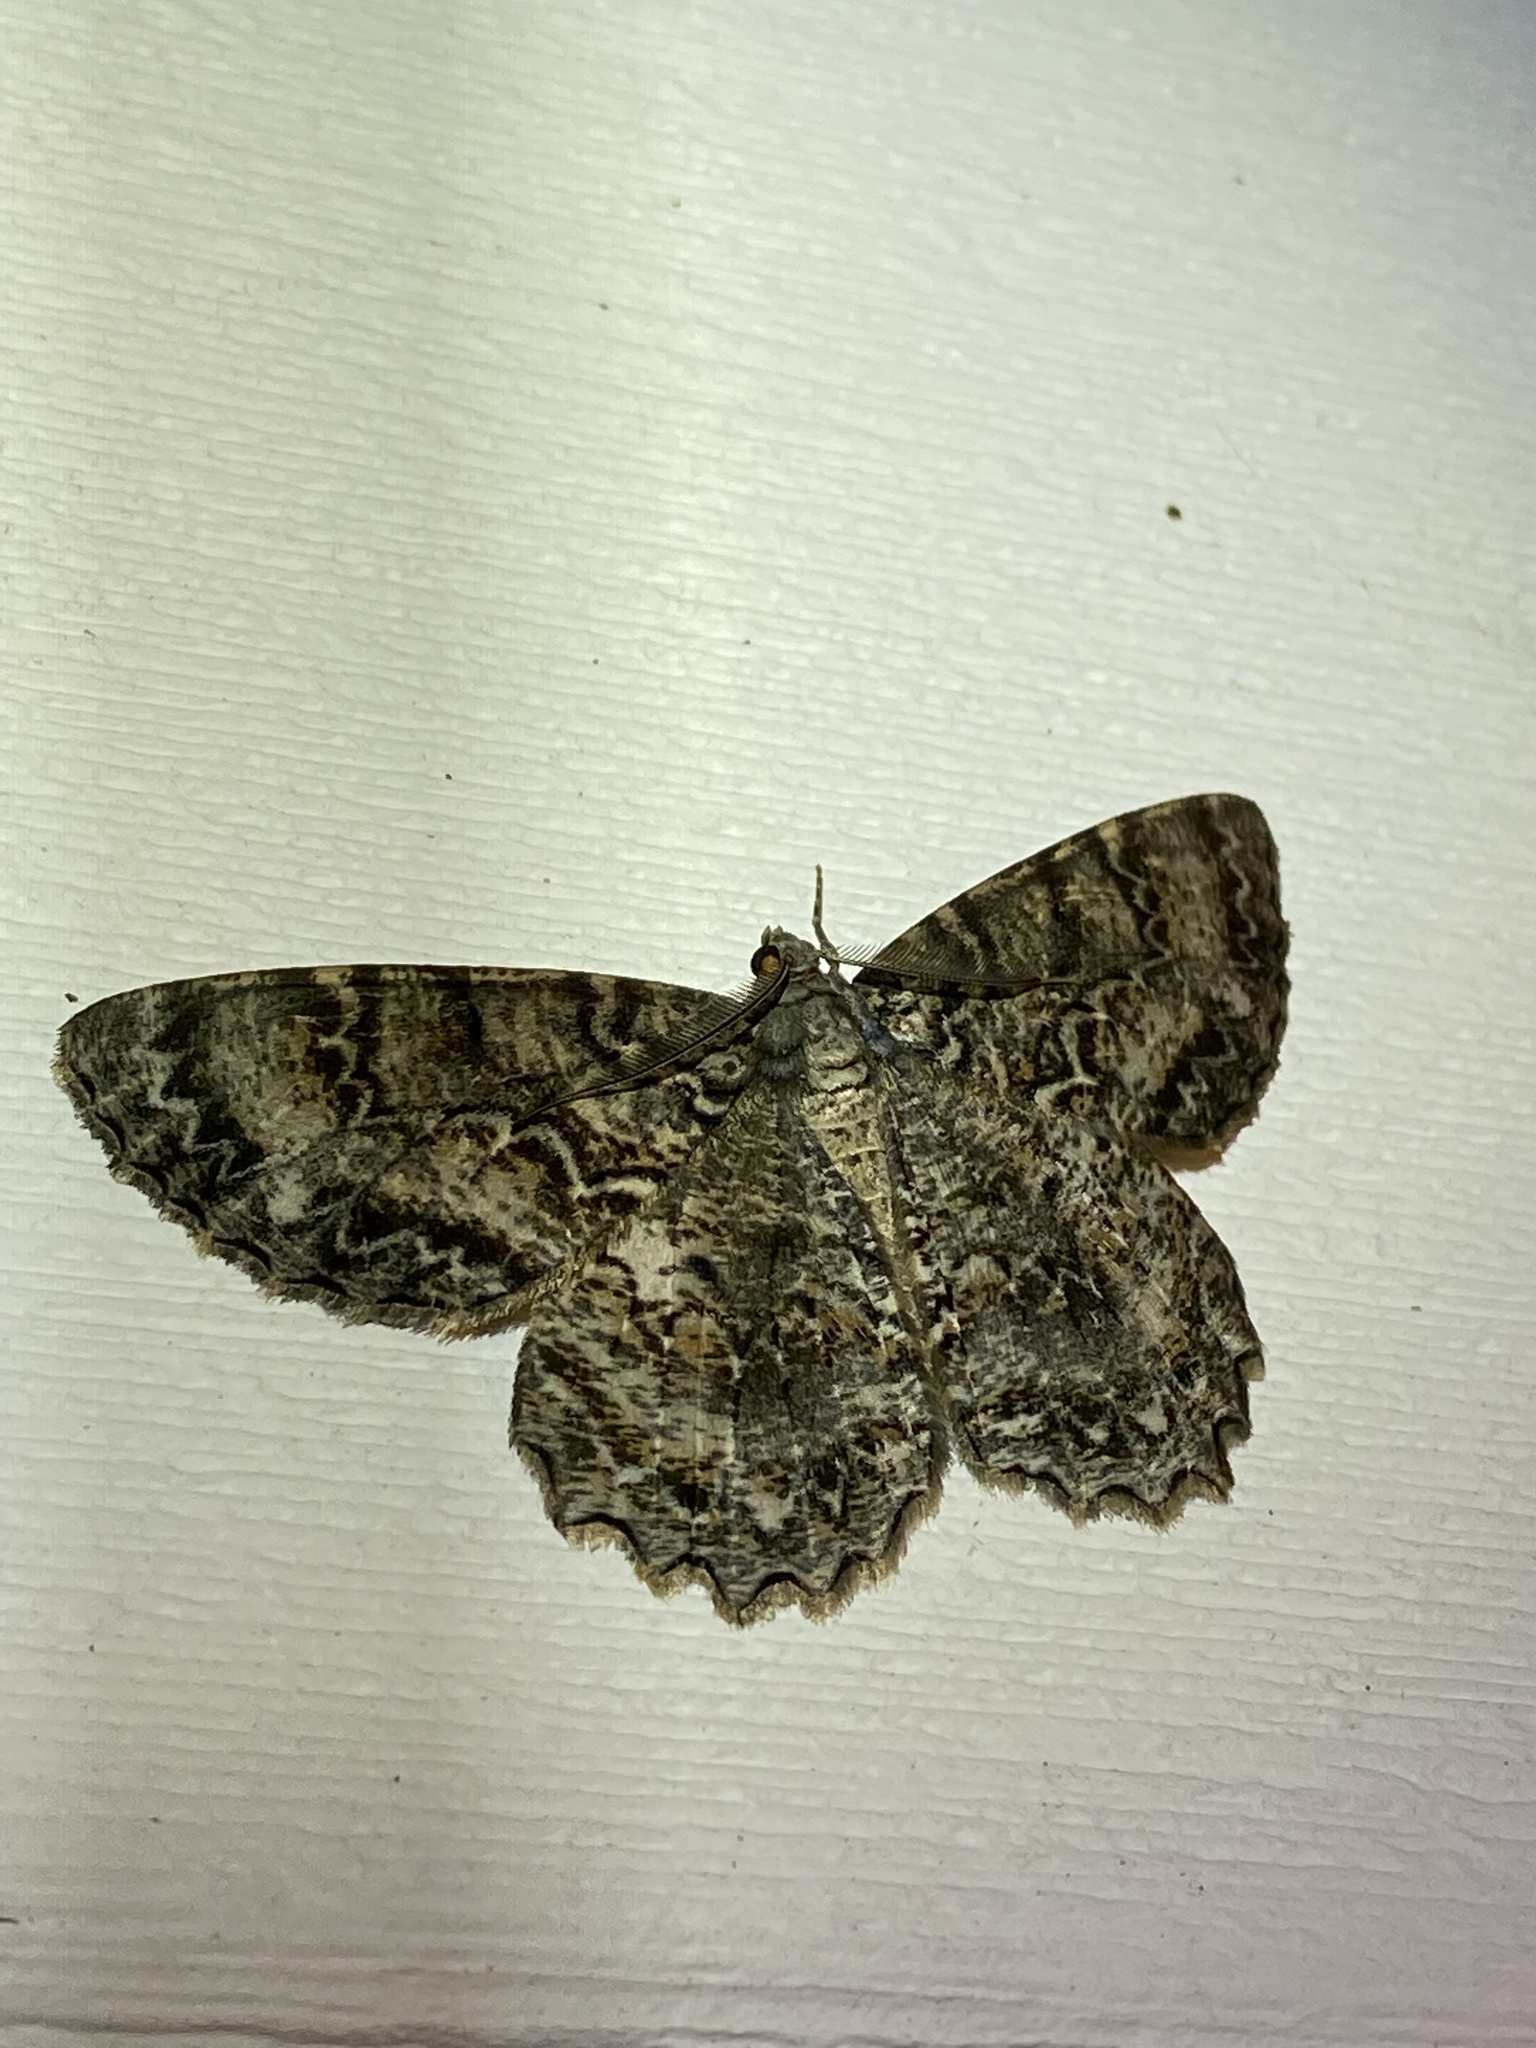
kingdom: Animalia
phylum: Arthropoda
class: Insecta
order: Lepidoptera
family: Geometridae
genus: Epimecis
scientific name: Epimecis hortaria
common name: Tulip-tree beauty
